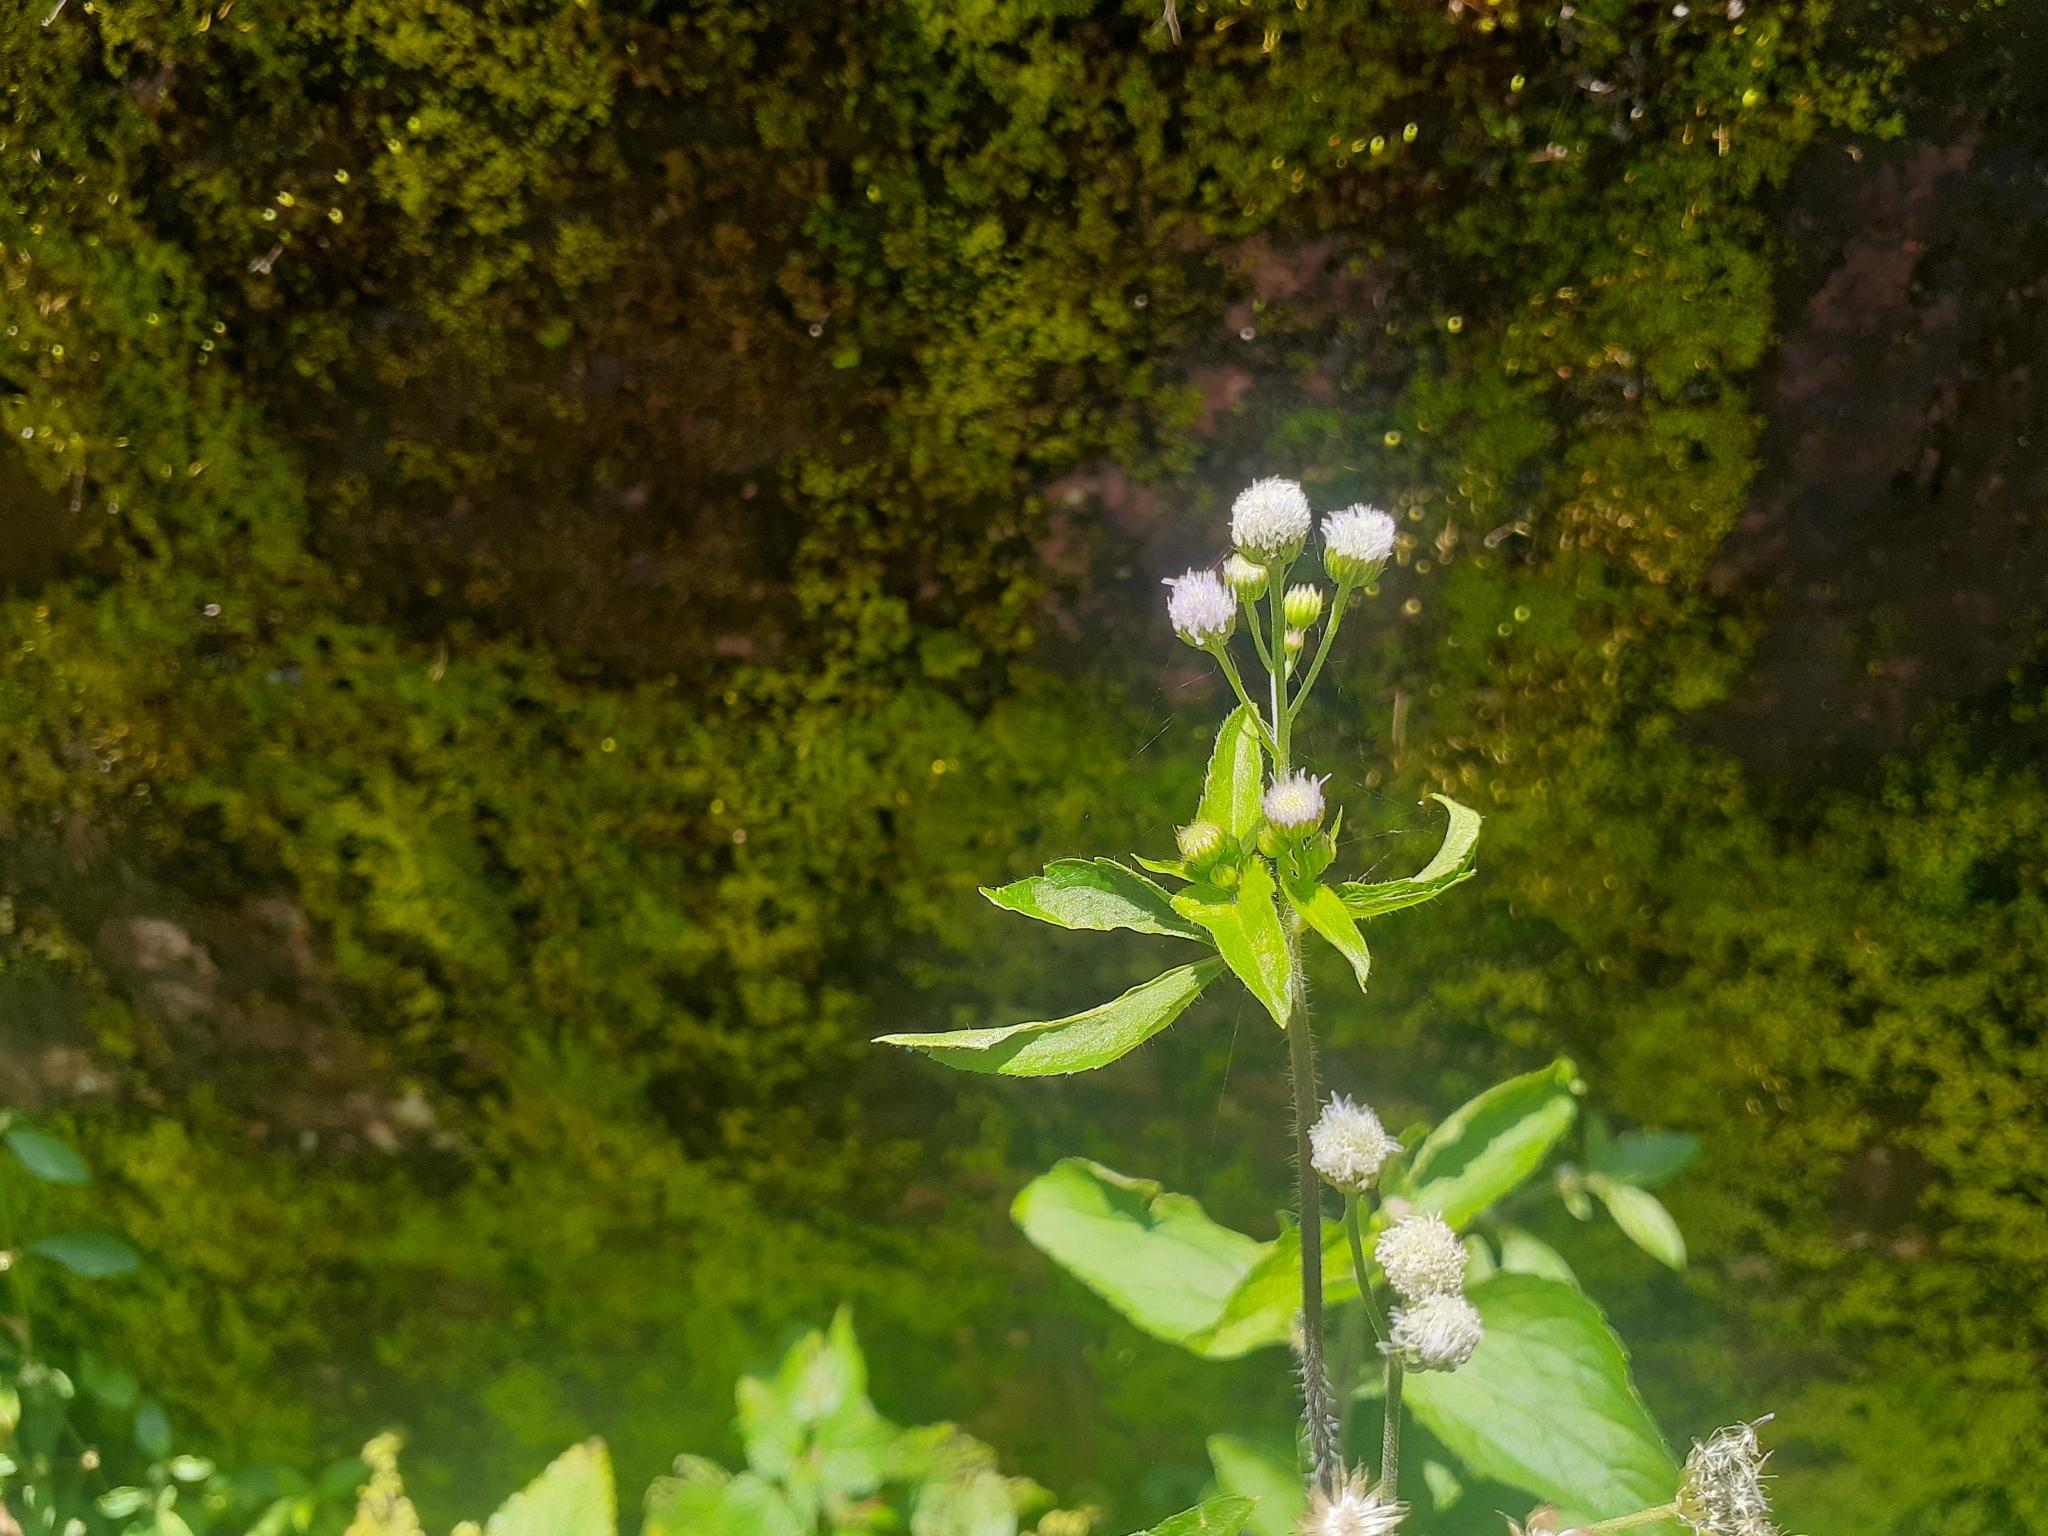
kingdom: Plantae
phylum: Tracheophyta
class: Magnoliopsida
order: Asterales
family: Asteraceae
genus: Ageratum
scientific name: Ageratum conyzoides
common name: Tropical whiteweed
